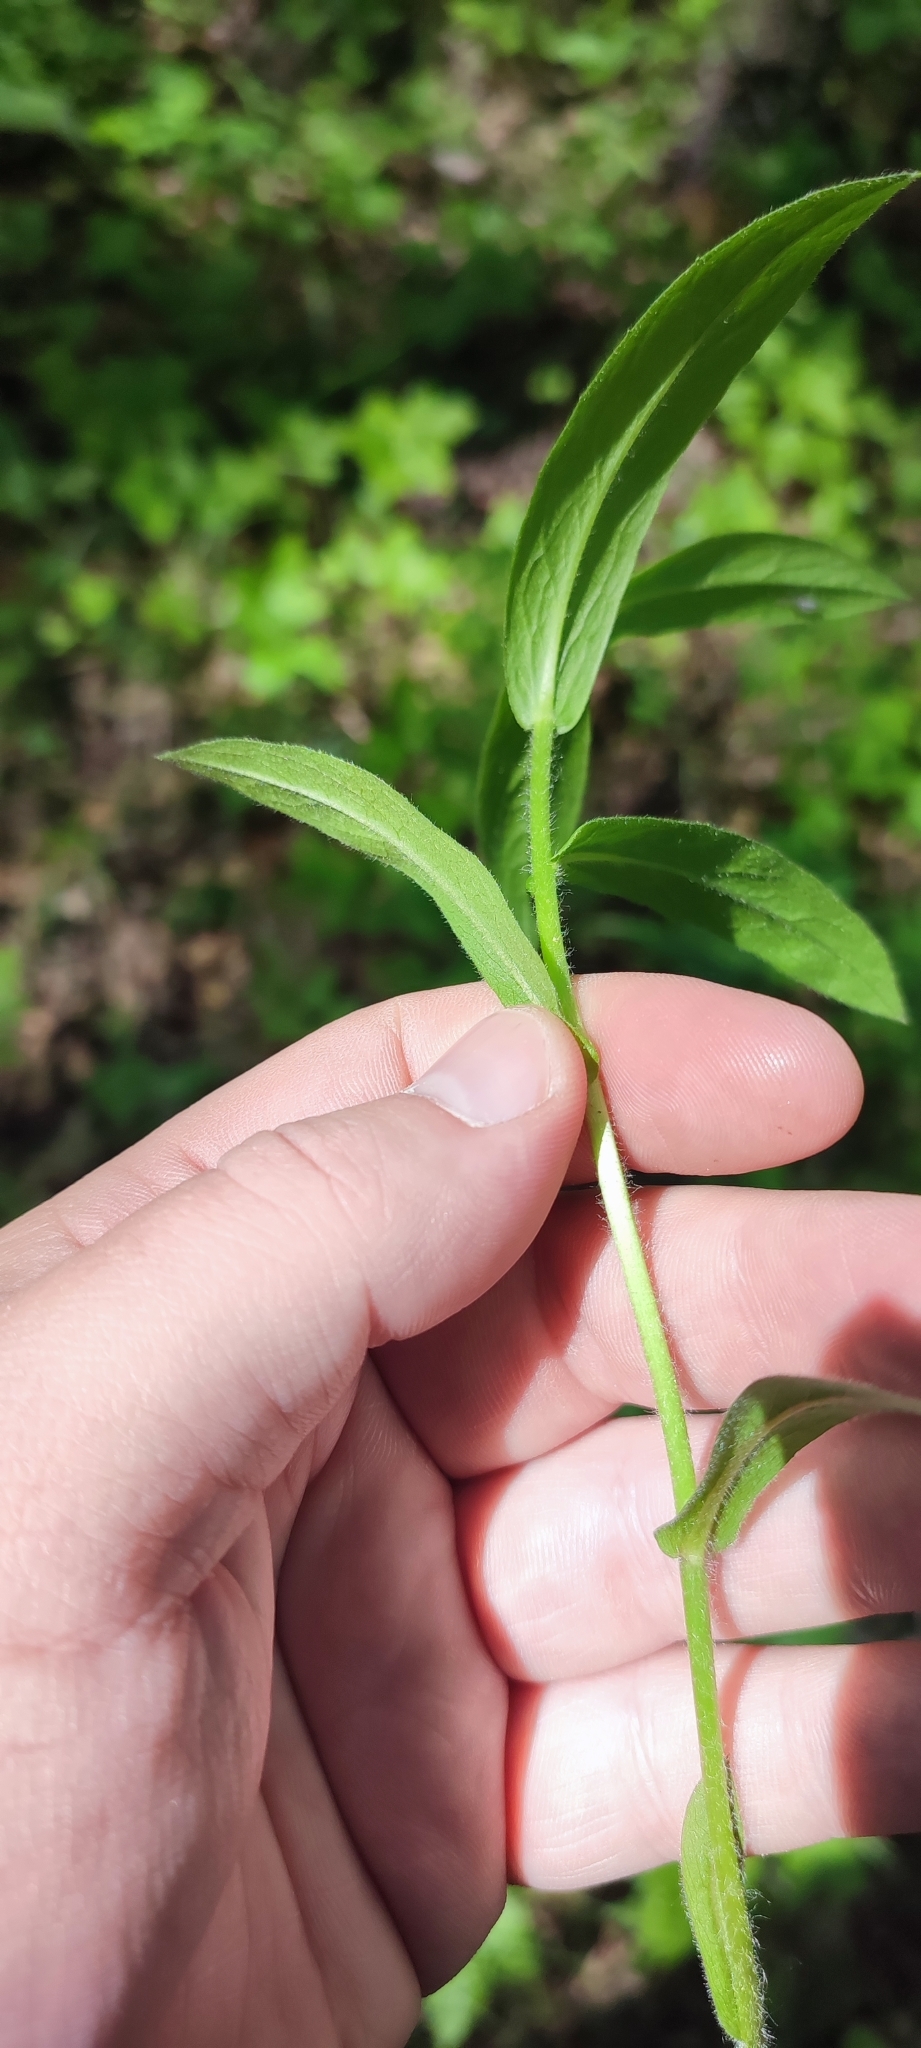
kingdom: Plantae
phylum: Tracheophyta
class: Magnoliopsida
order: Asterales
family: Asteraceae
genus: Pentanema
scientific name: Pentanema hirtum
